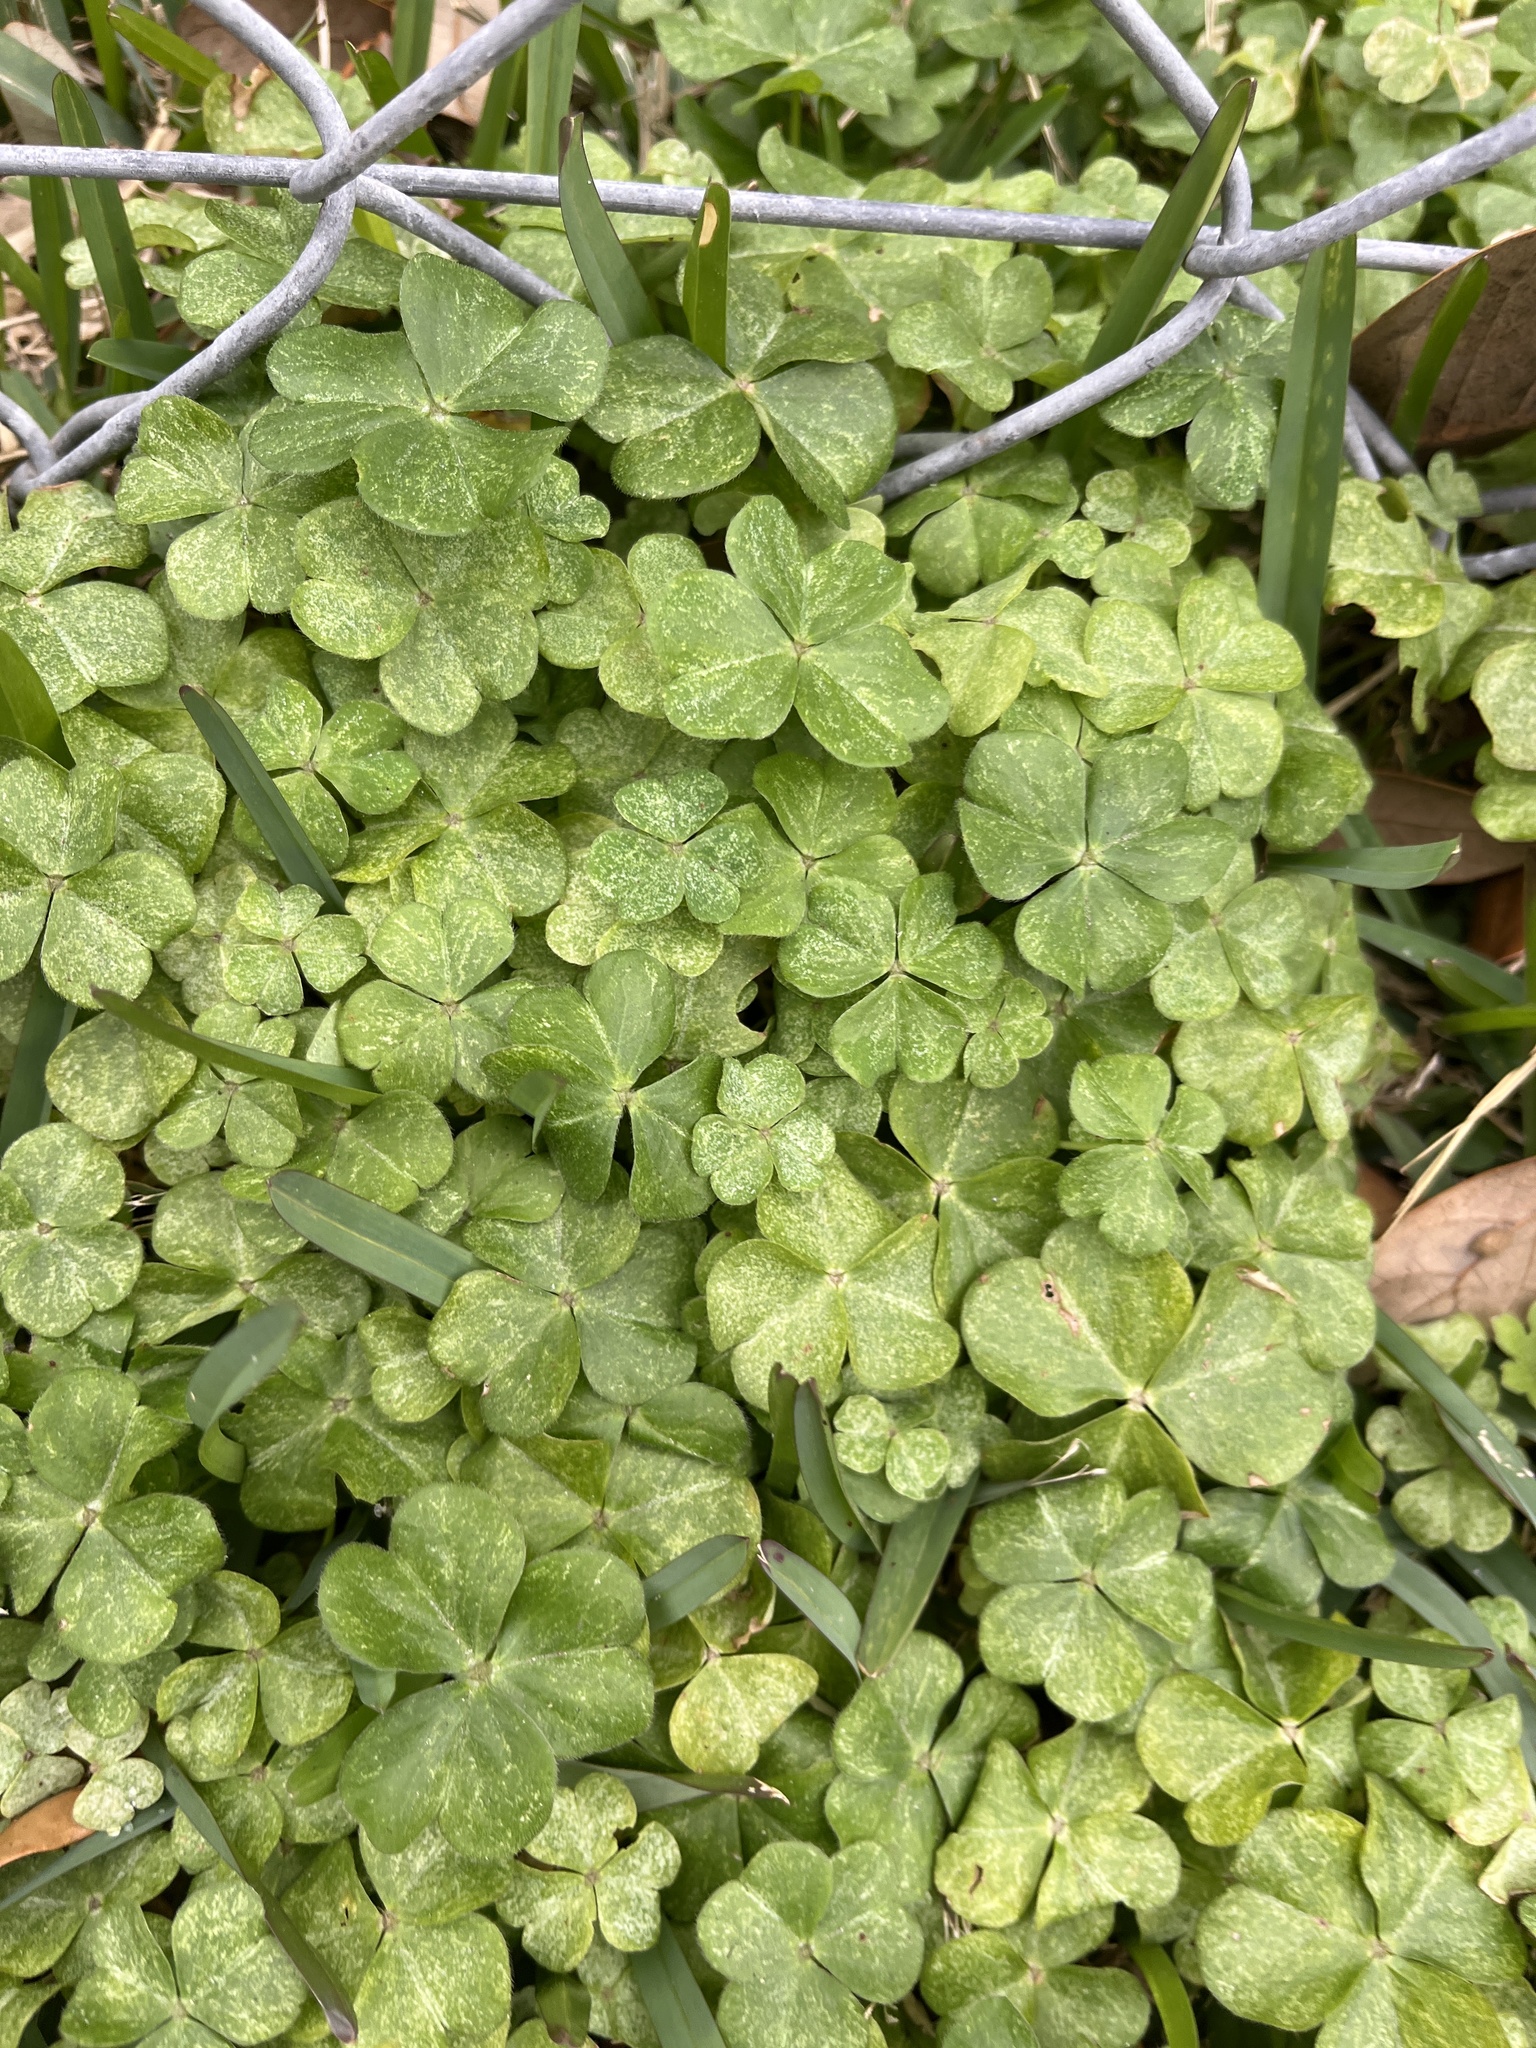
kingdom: Plantae
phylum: Tracheophyta
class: Magnoliopsida
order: Oxalidales
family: Oxalidaceae
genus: Oxalis
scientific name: Oxalis debilis
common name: Large-flowered pink-sorrel
